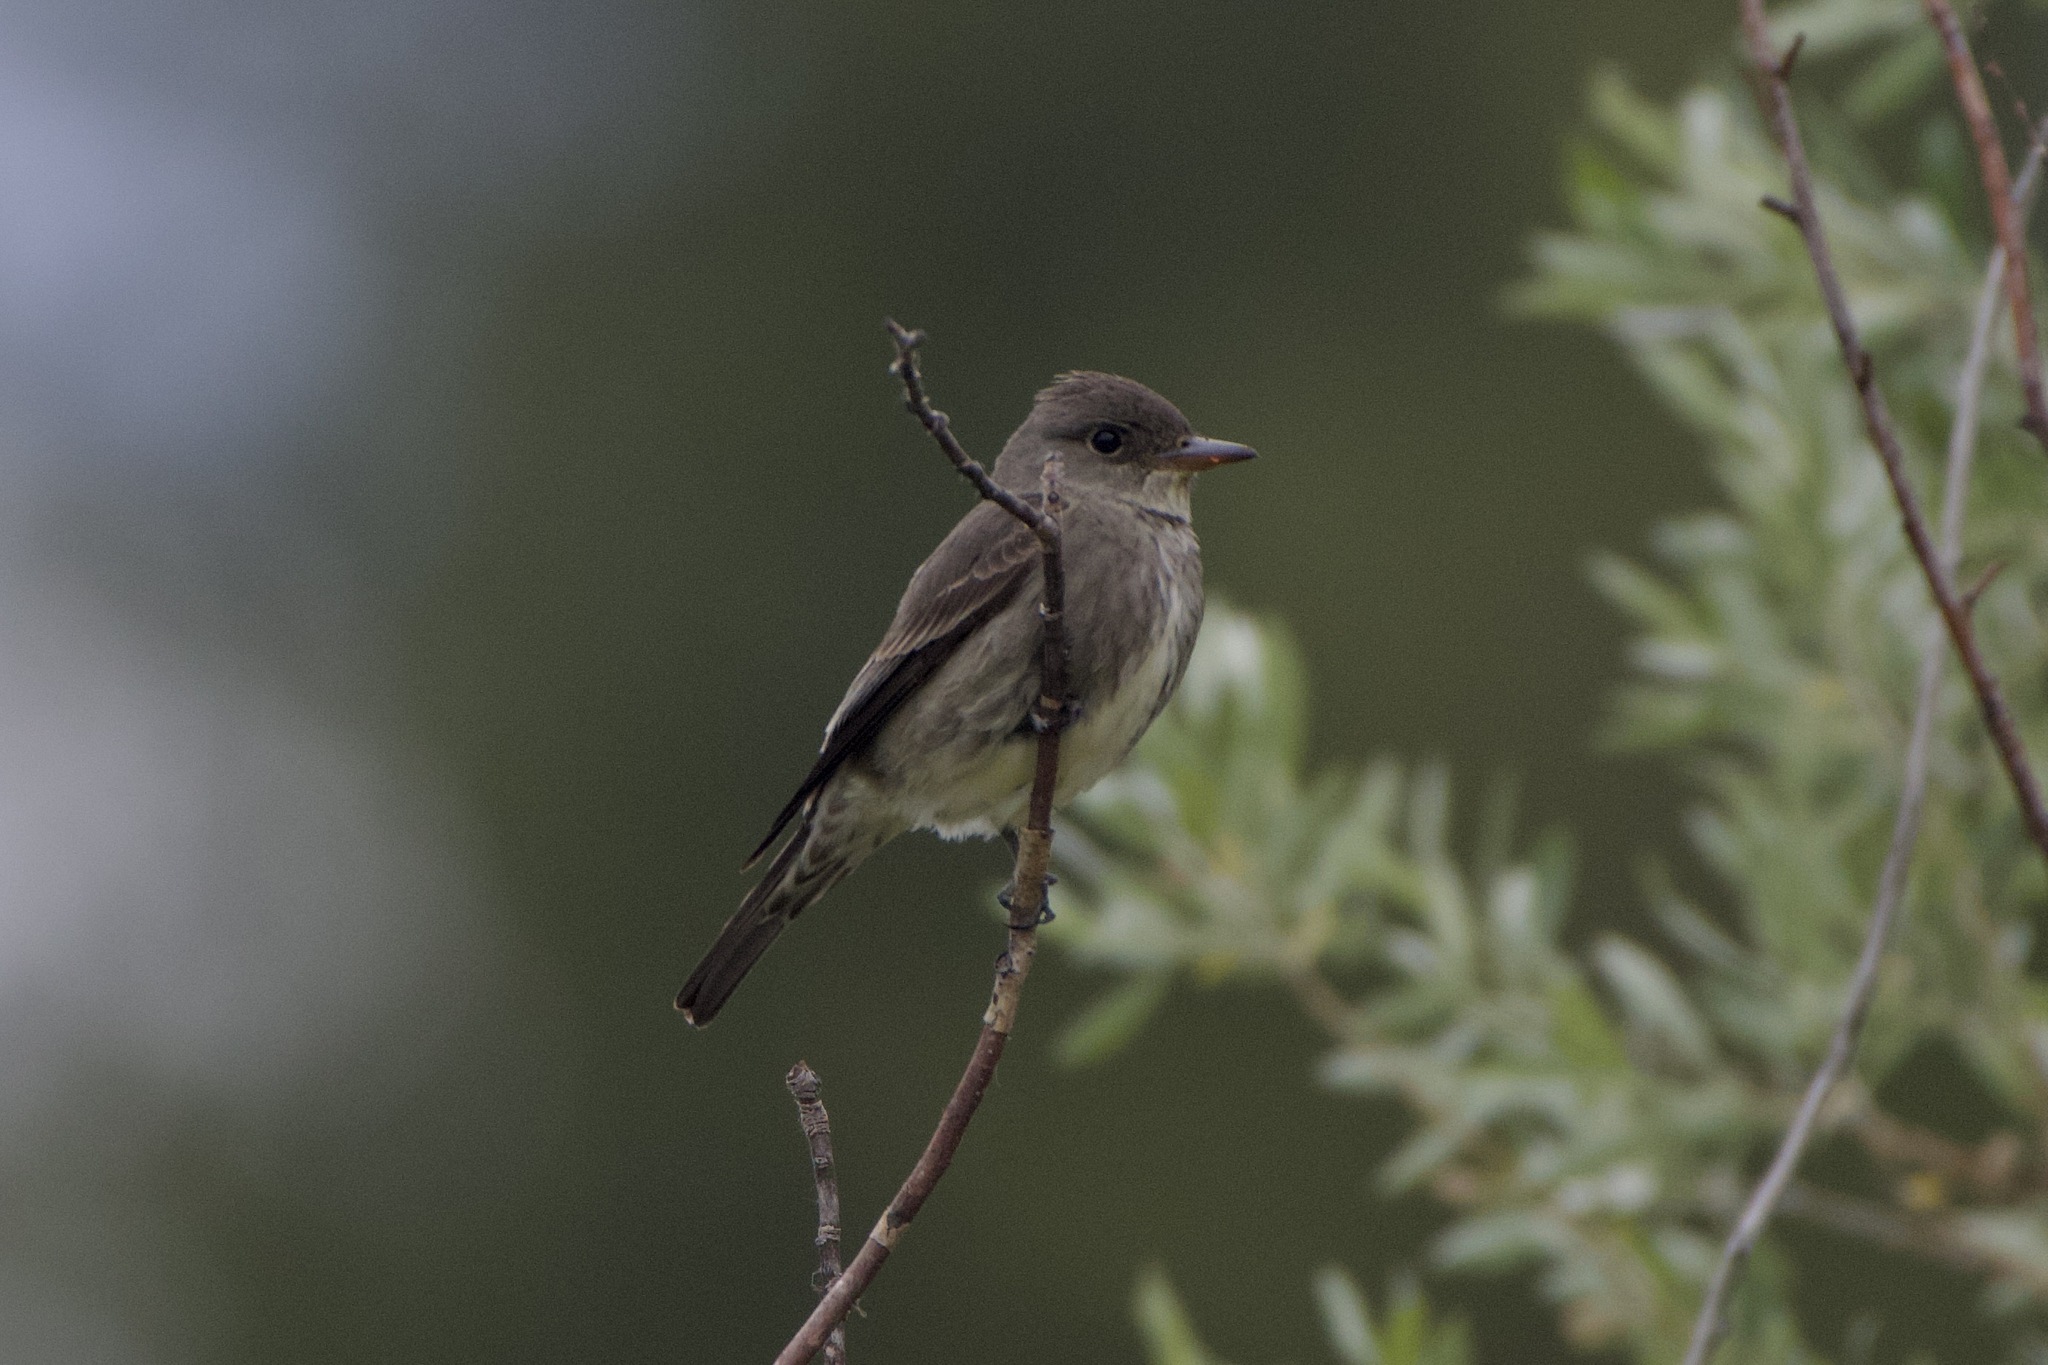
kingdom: Animalia
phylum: Chordata
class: Aves
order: Passeriformes
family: Tyrannidae
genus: Contopus
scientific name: Contopus cooperi
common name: Olive-sided flycatcher
